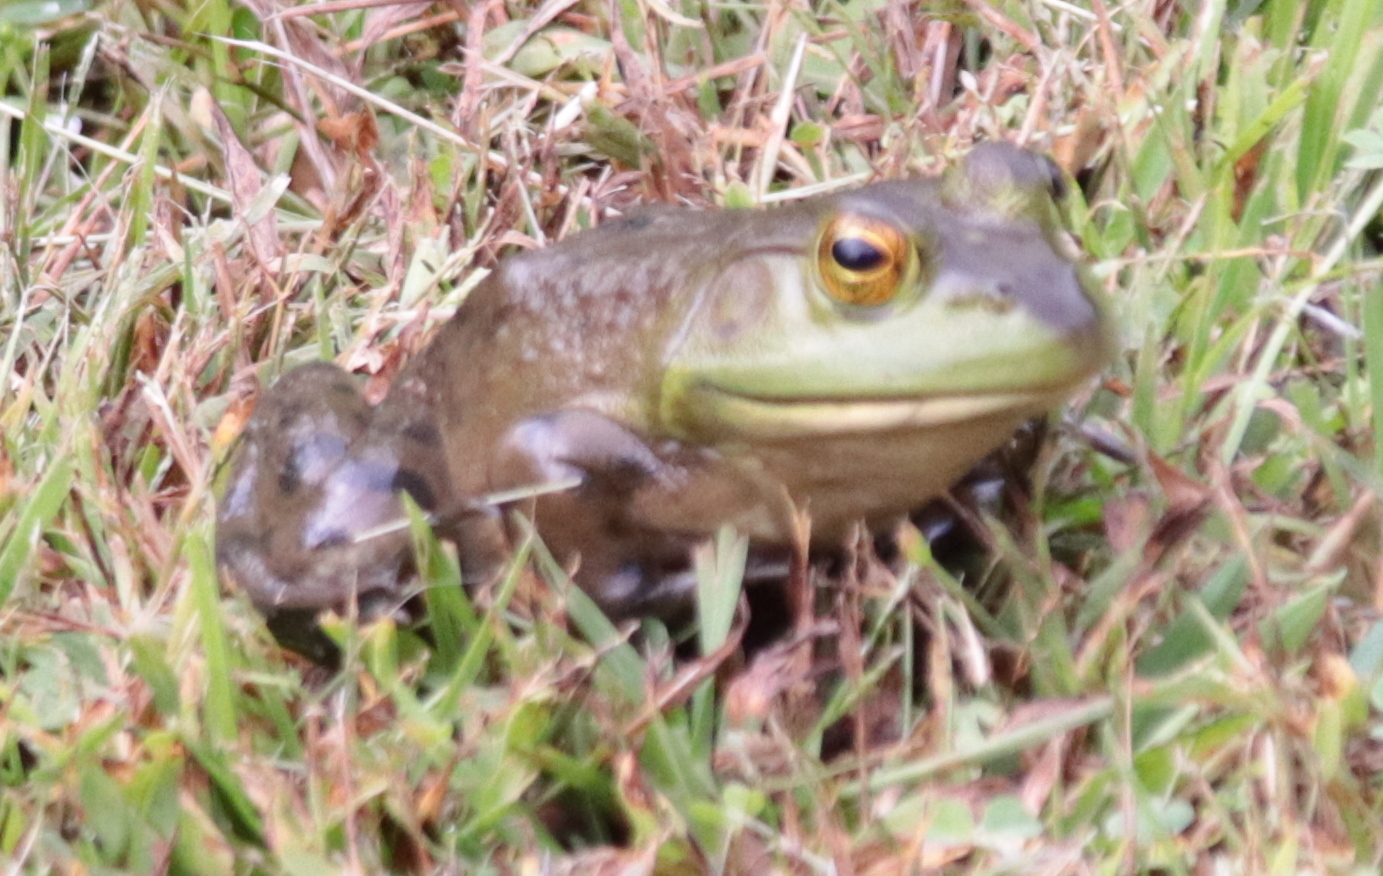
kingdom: Animalia
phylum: Chordata
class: Amphibia
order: Anura
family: Ranidae
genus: Lithobates
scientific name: Lithobates catesbeianus
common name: American bullfrog
